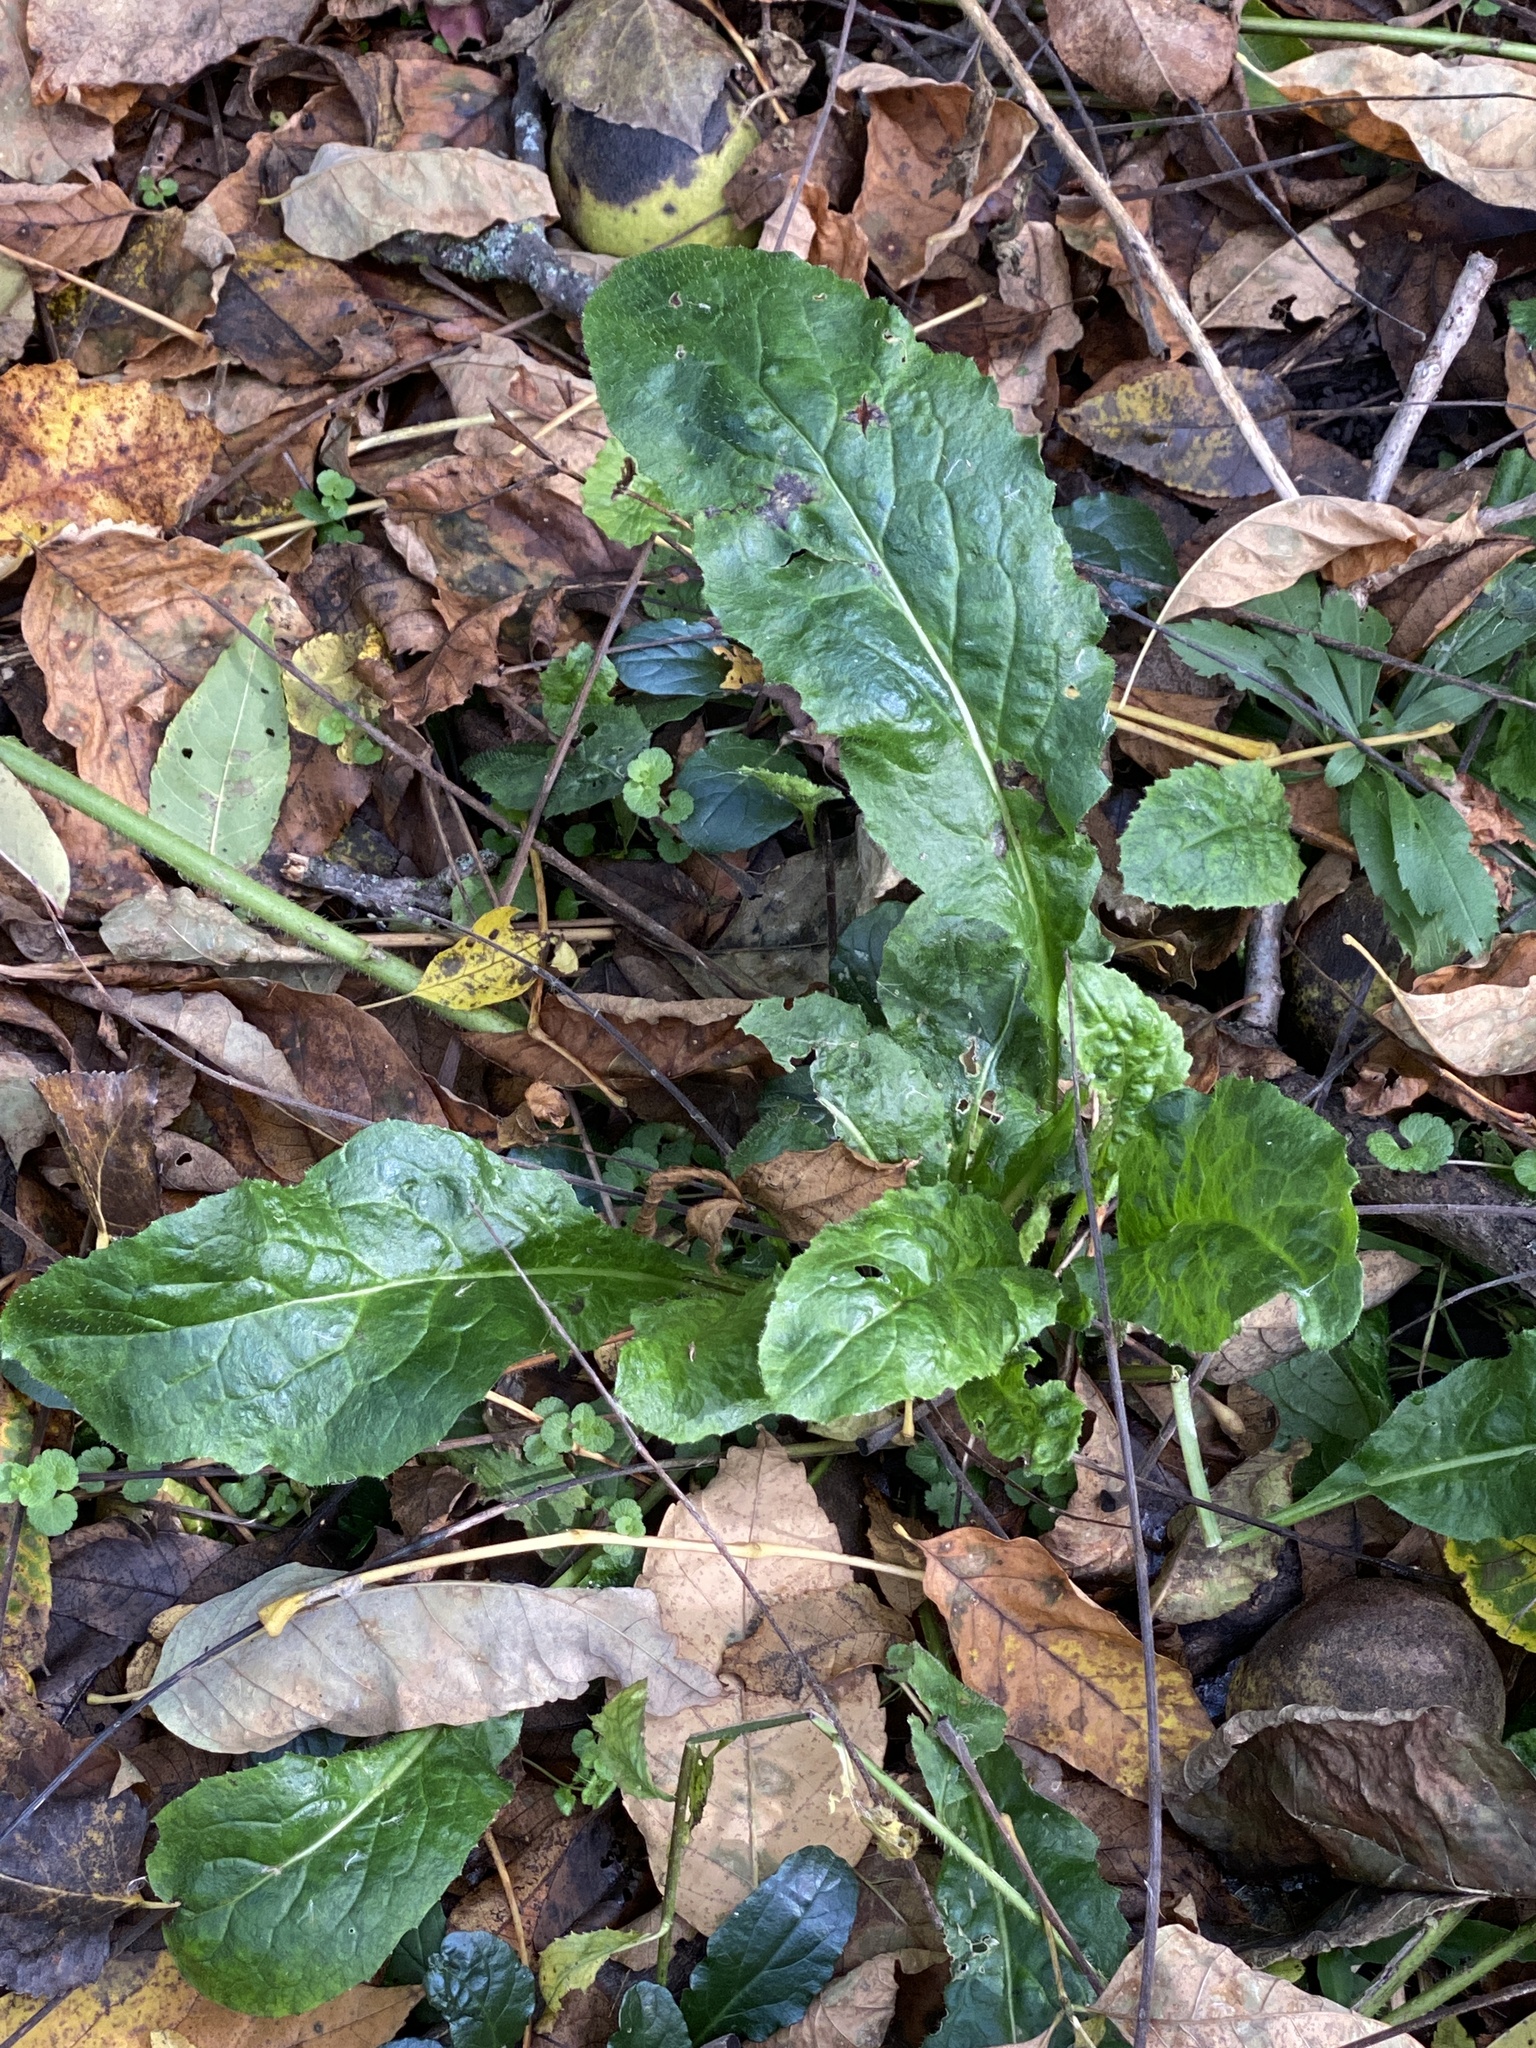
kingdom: Plantae
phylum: Tracheophyta
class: Magnoliopsida
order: Brassicales
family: Brassicaceae
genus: Hesperis
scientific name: Hesperis matronalis
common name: Dame's-violet
